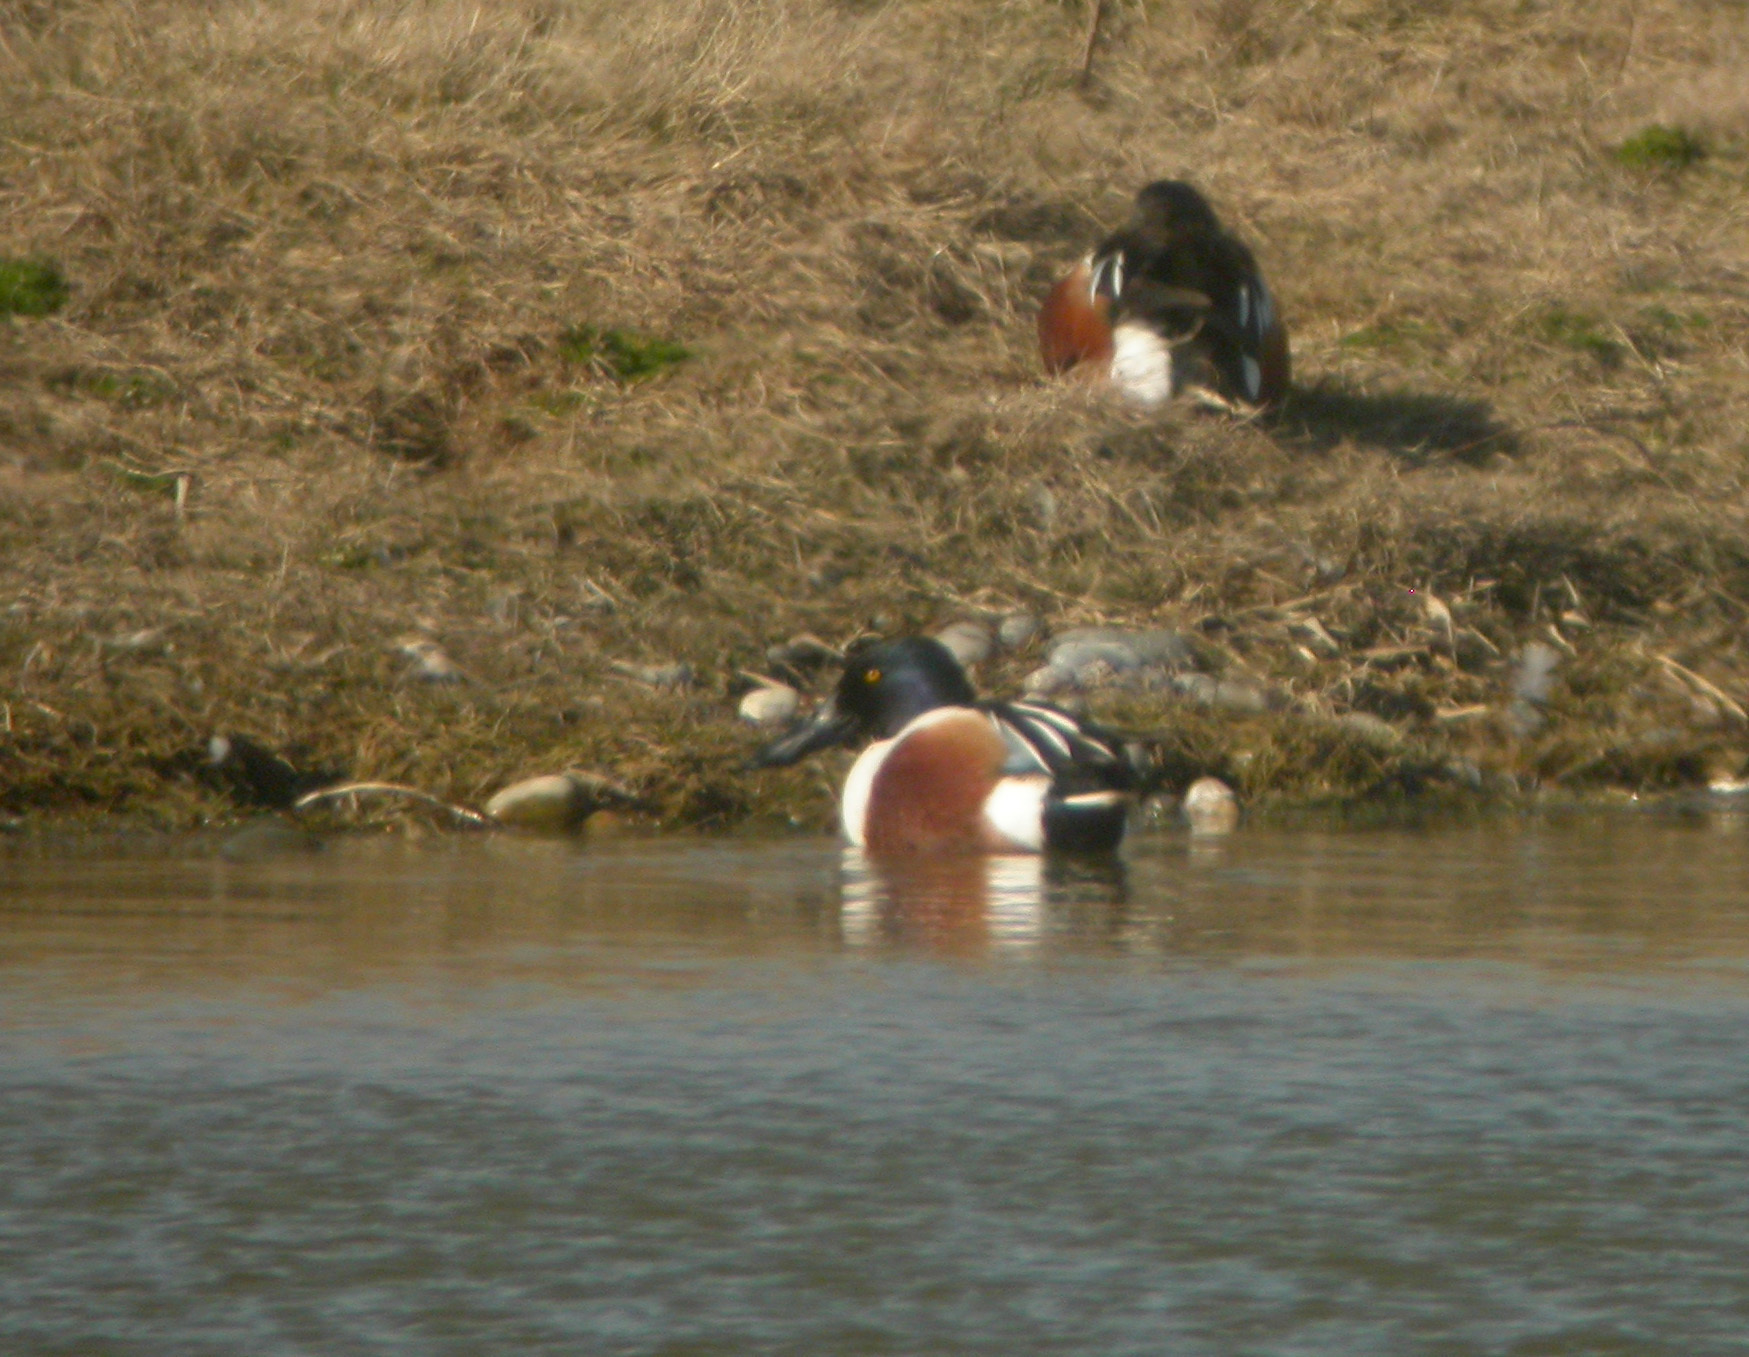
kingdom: Animalia
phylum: Chordata
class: Aves
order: Anseriformes
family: Anatidae
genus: Spatula
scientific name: Spatula clypeata
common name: Northern shoveler
